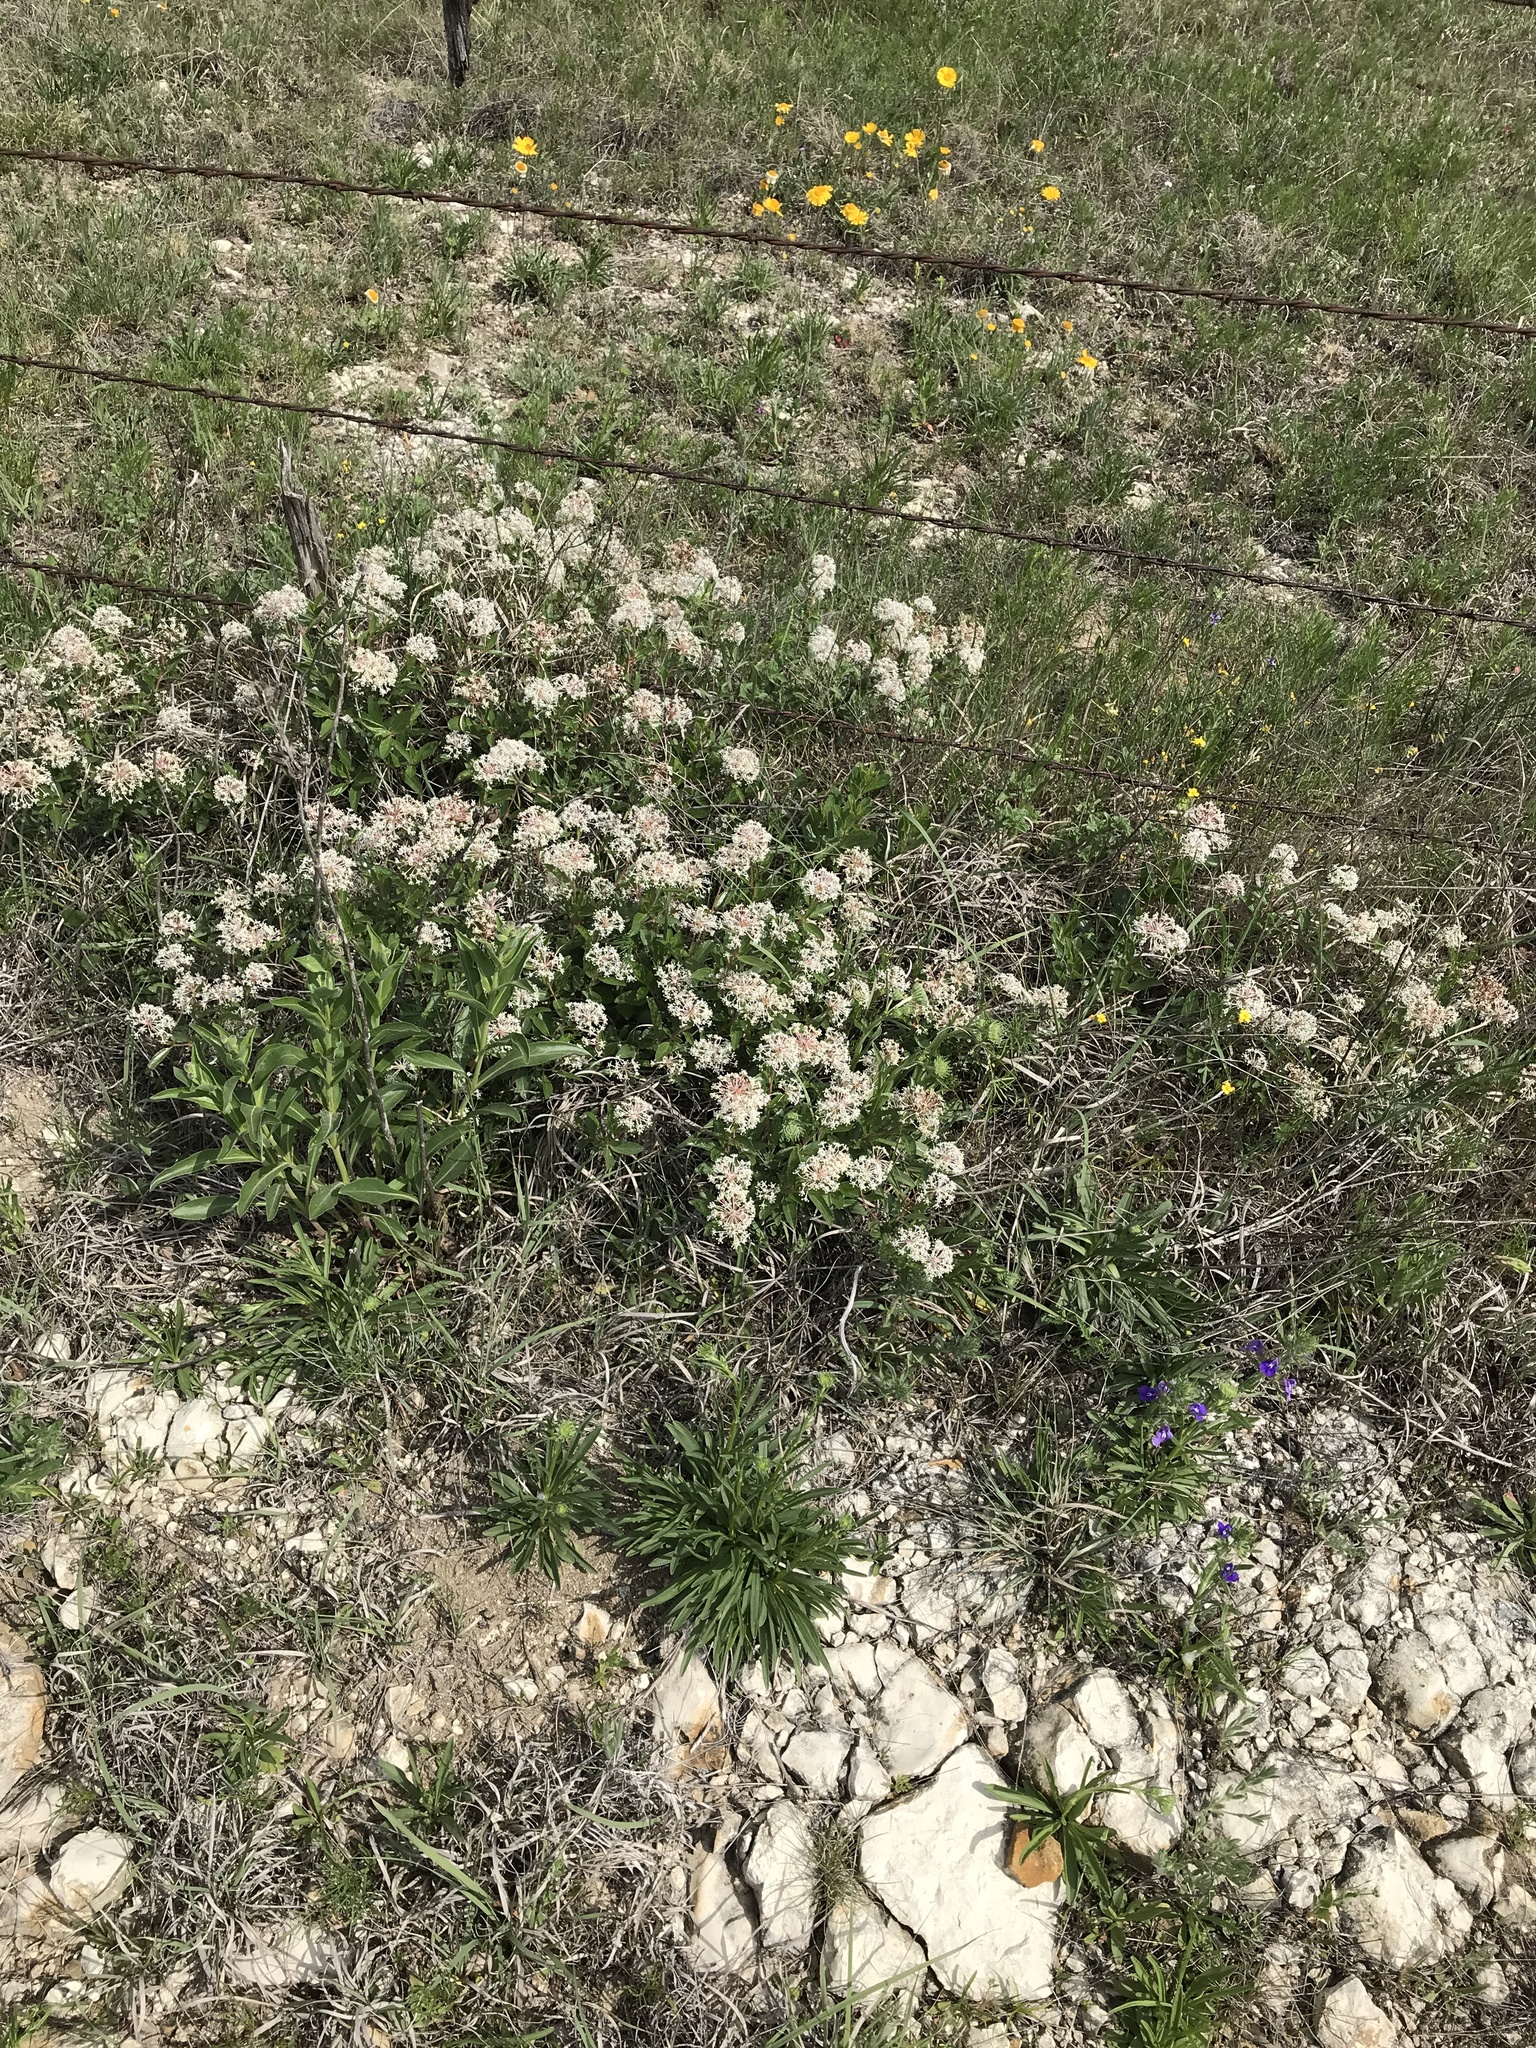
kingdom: Plantae
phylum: Tracheophyta
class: Magnoliopsida
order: Rosales
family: Rhamnaceae
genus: Ceanothus
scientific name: Ceanothus herbaceus
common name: Inland ceanothus
